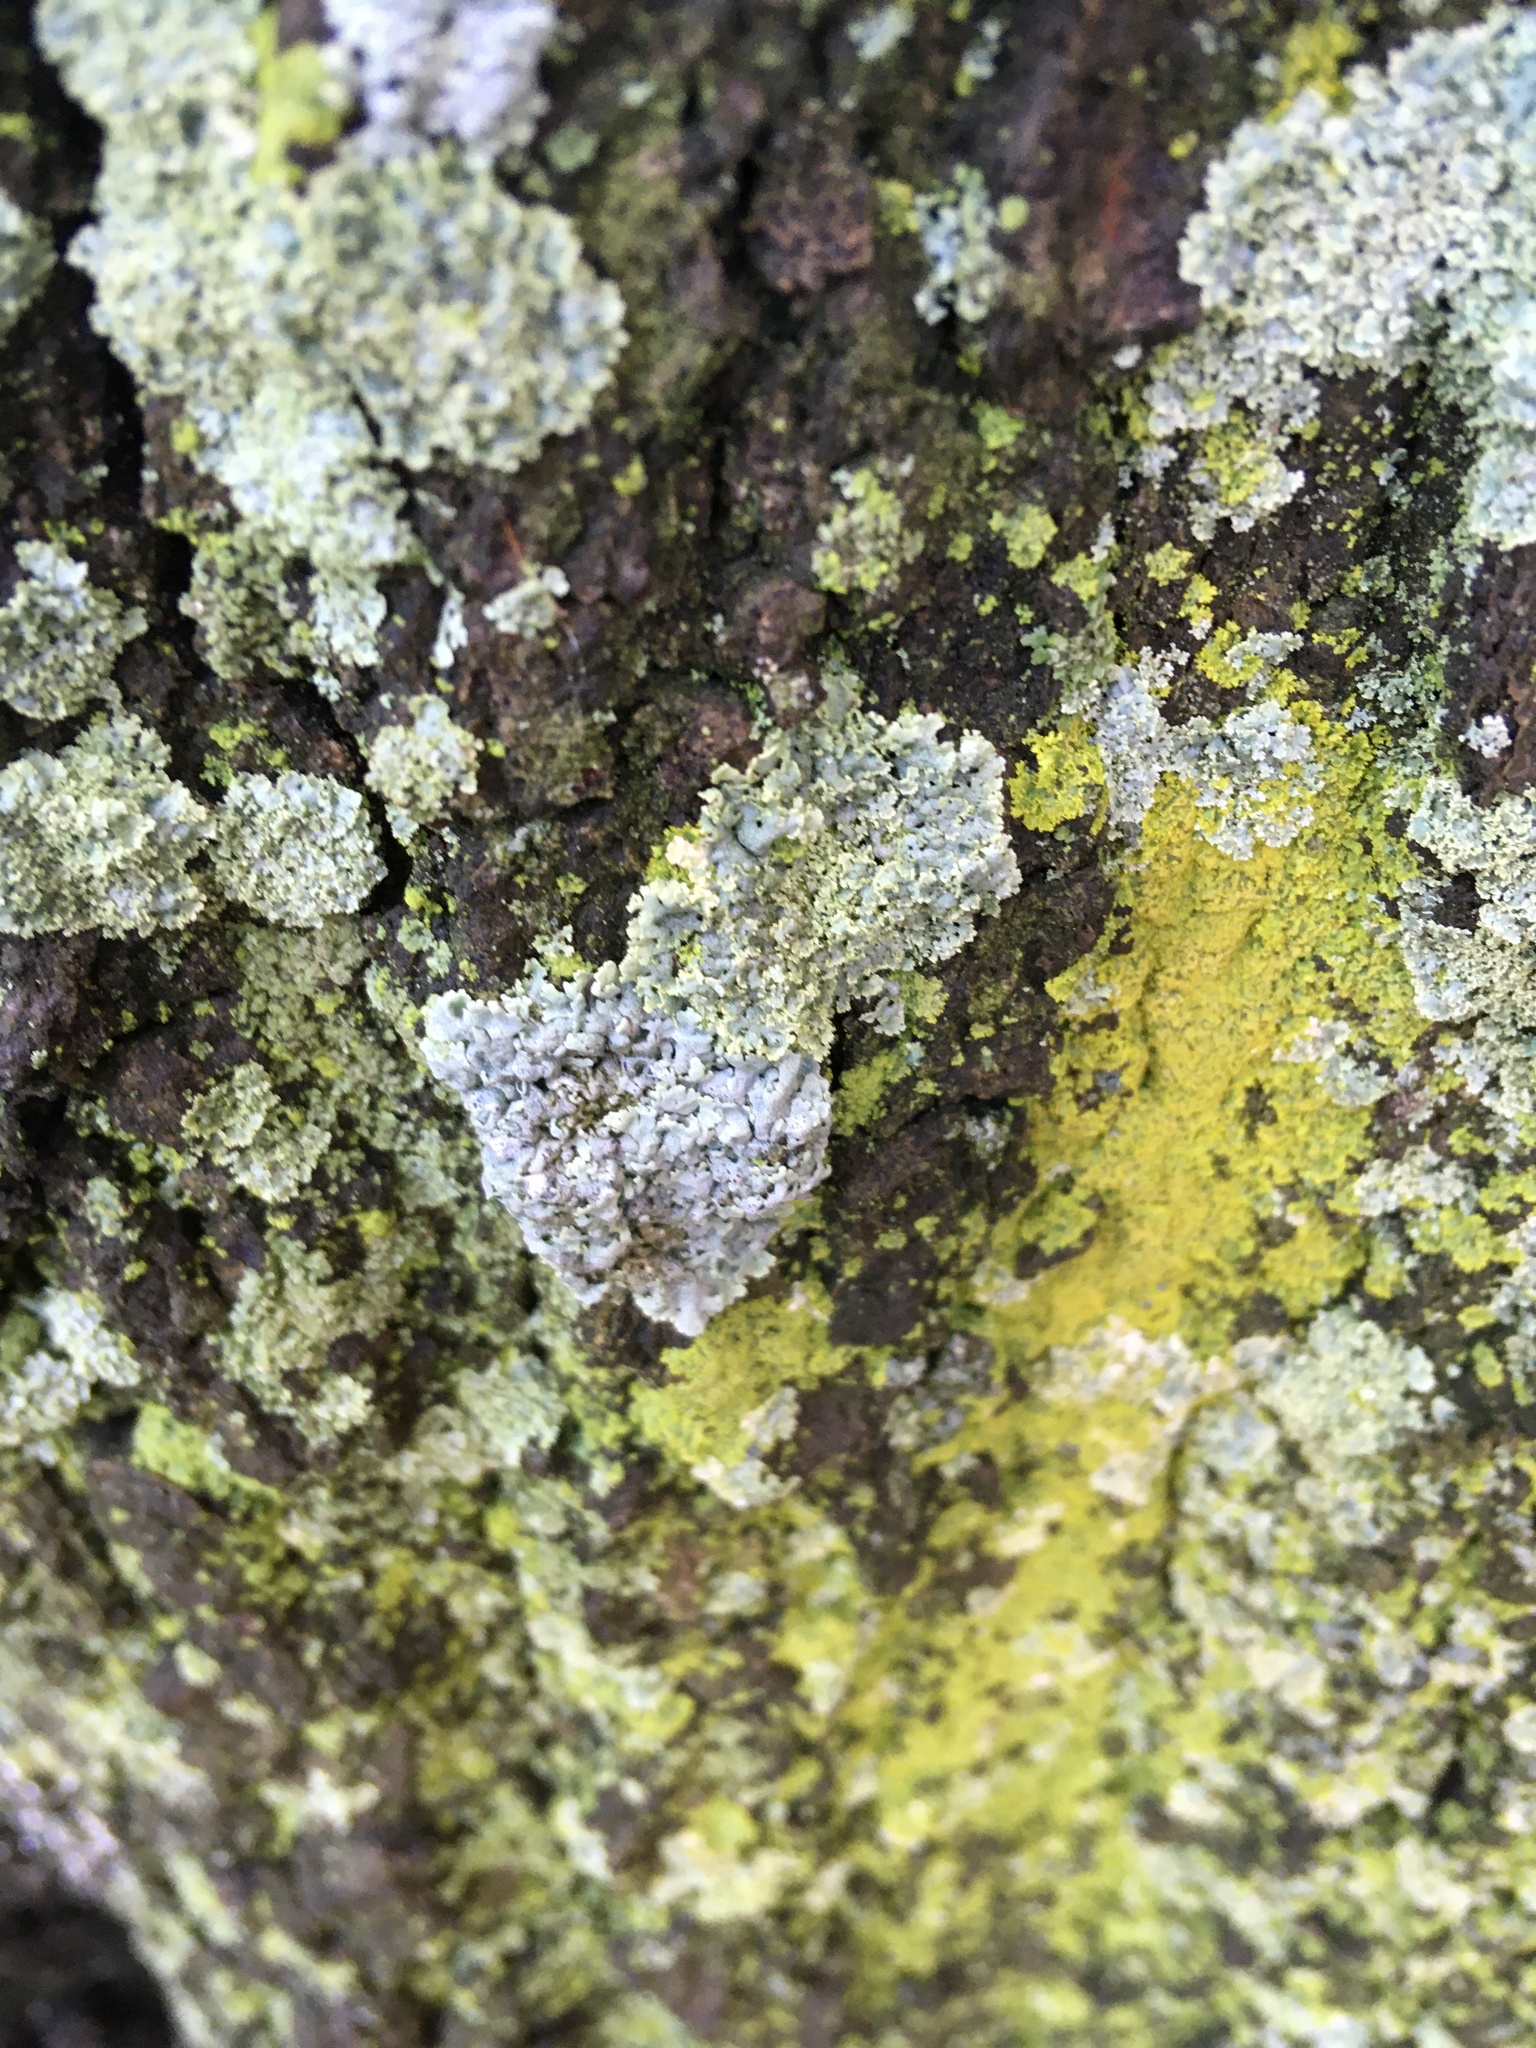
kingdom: Fungi
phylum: Ascomycota
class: Lecanoromycetes
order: Caliciales
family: Physciaceae
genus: Physcia
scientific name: Physcia stellaris
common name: Star rosette lichen
